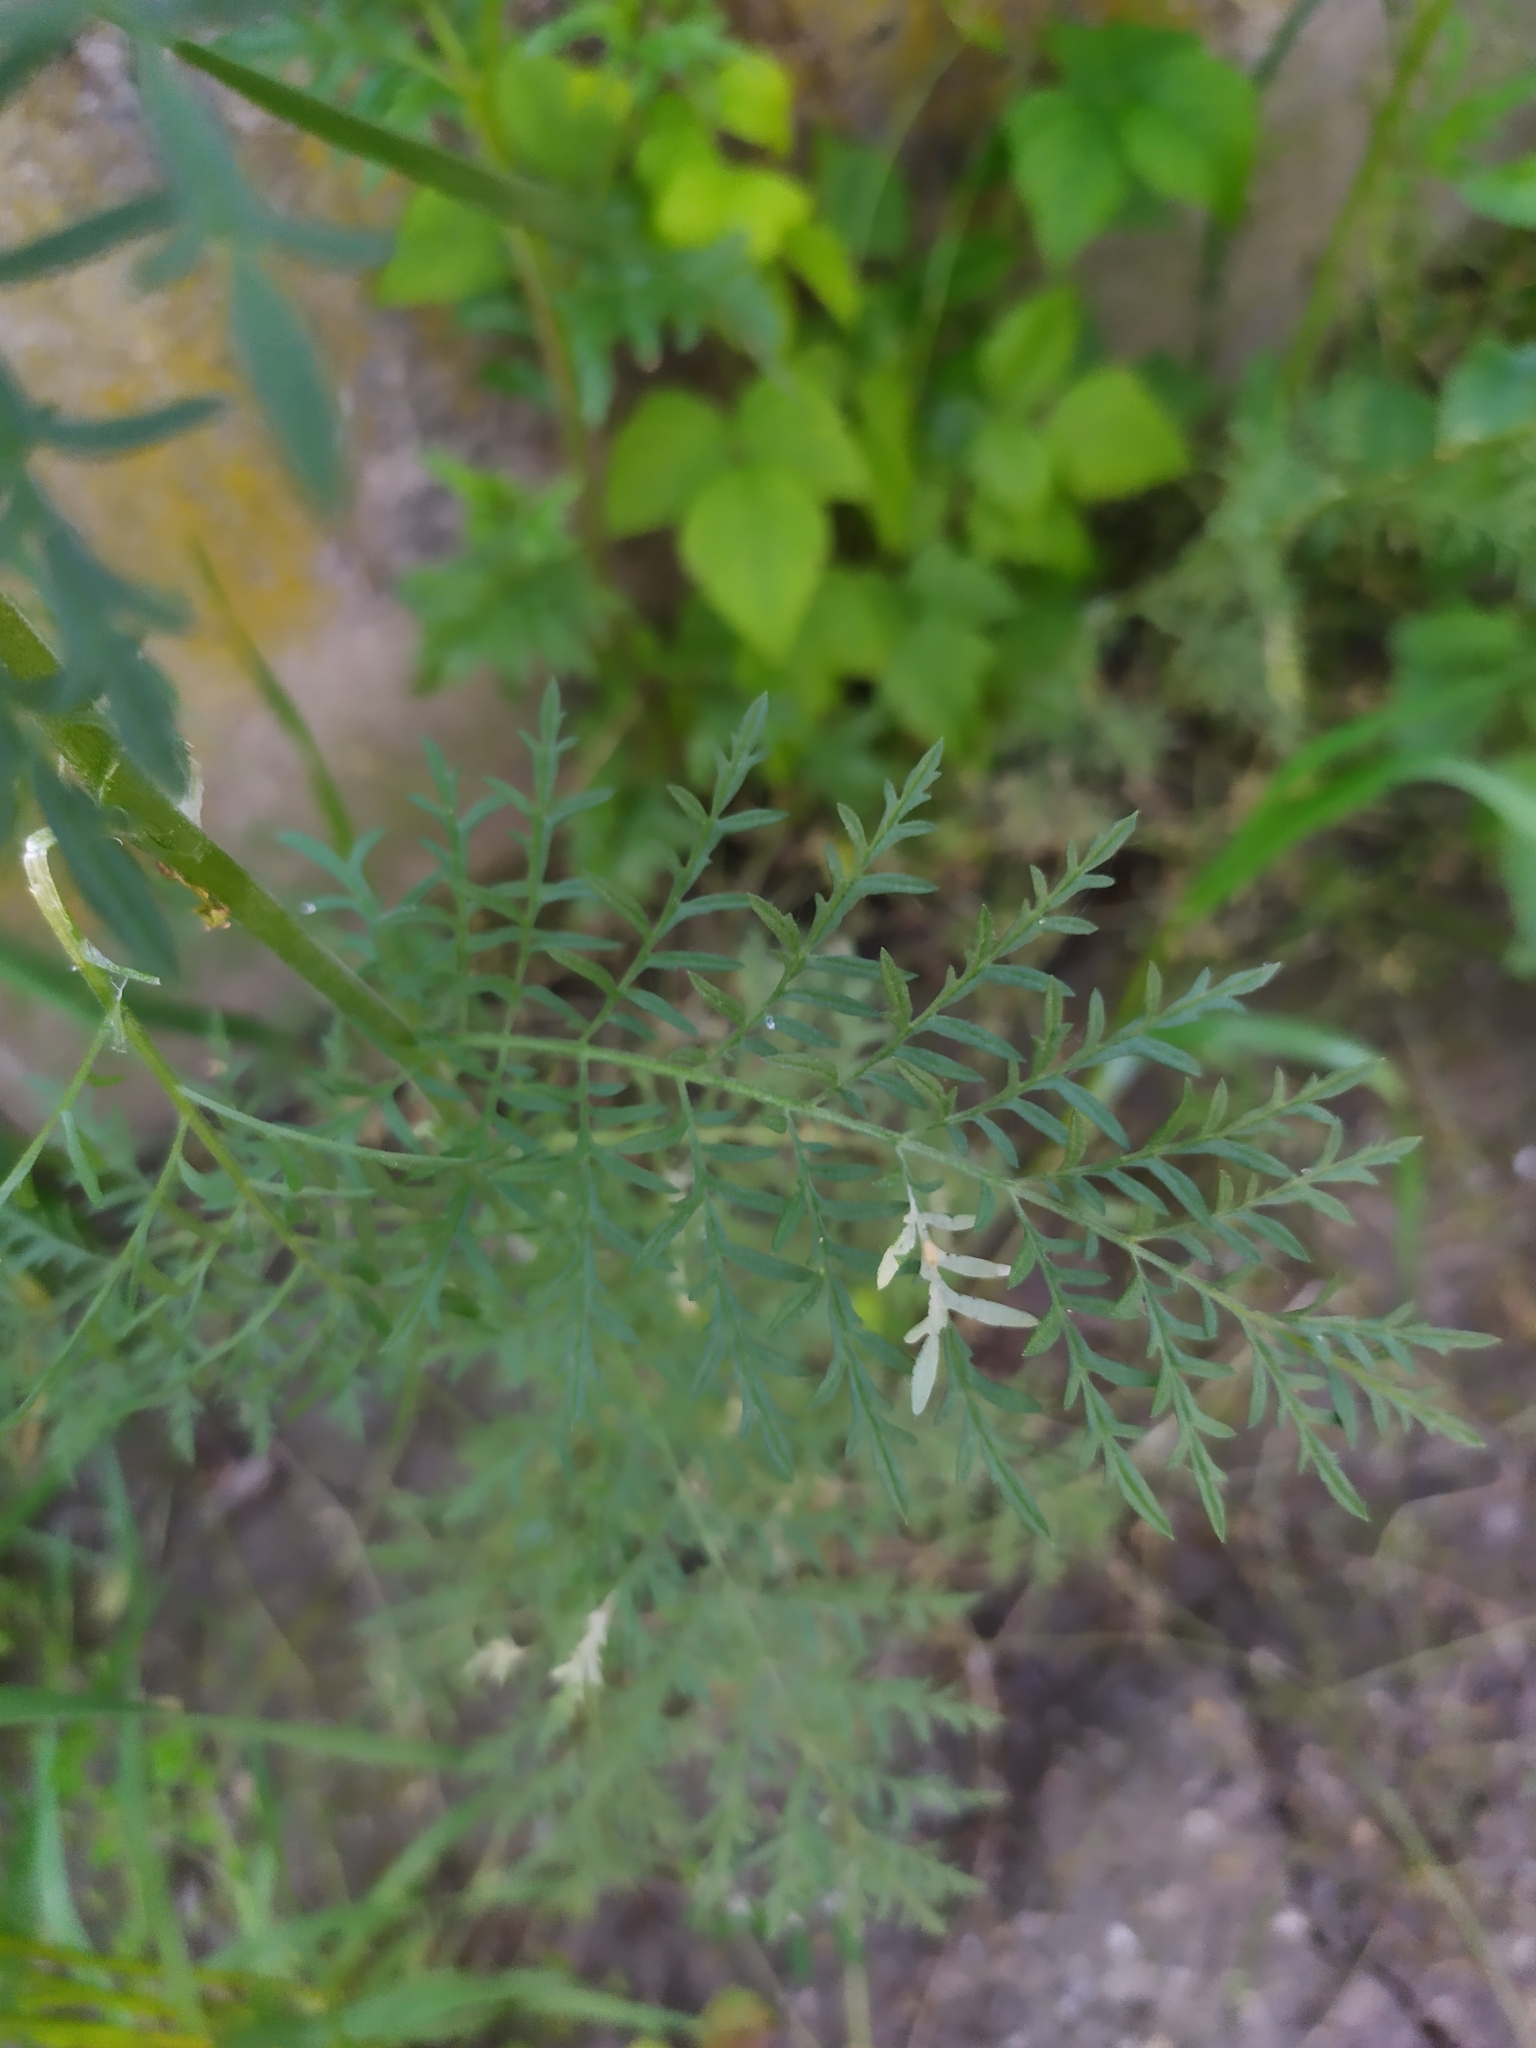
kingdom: Plantae
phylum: Tracheophyta
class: Magnoliopsida
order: Brassicales
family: Brassicaceae
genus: Descurainia
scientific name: Descurainia sophia
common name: Flixweed
